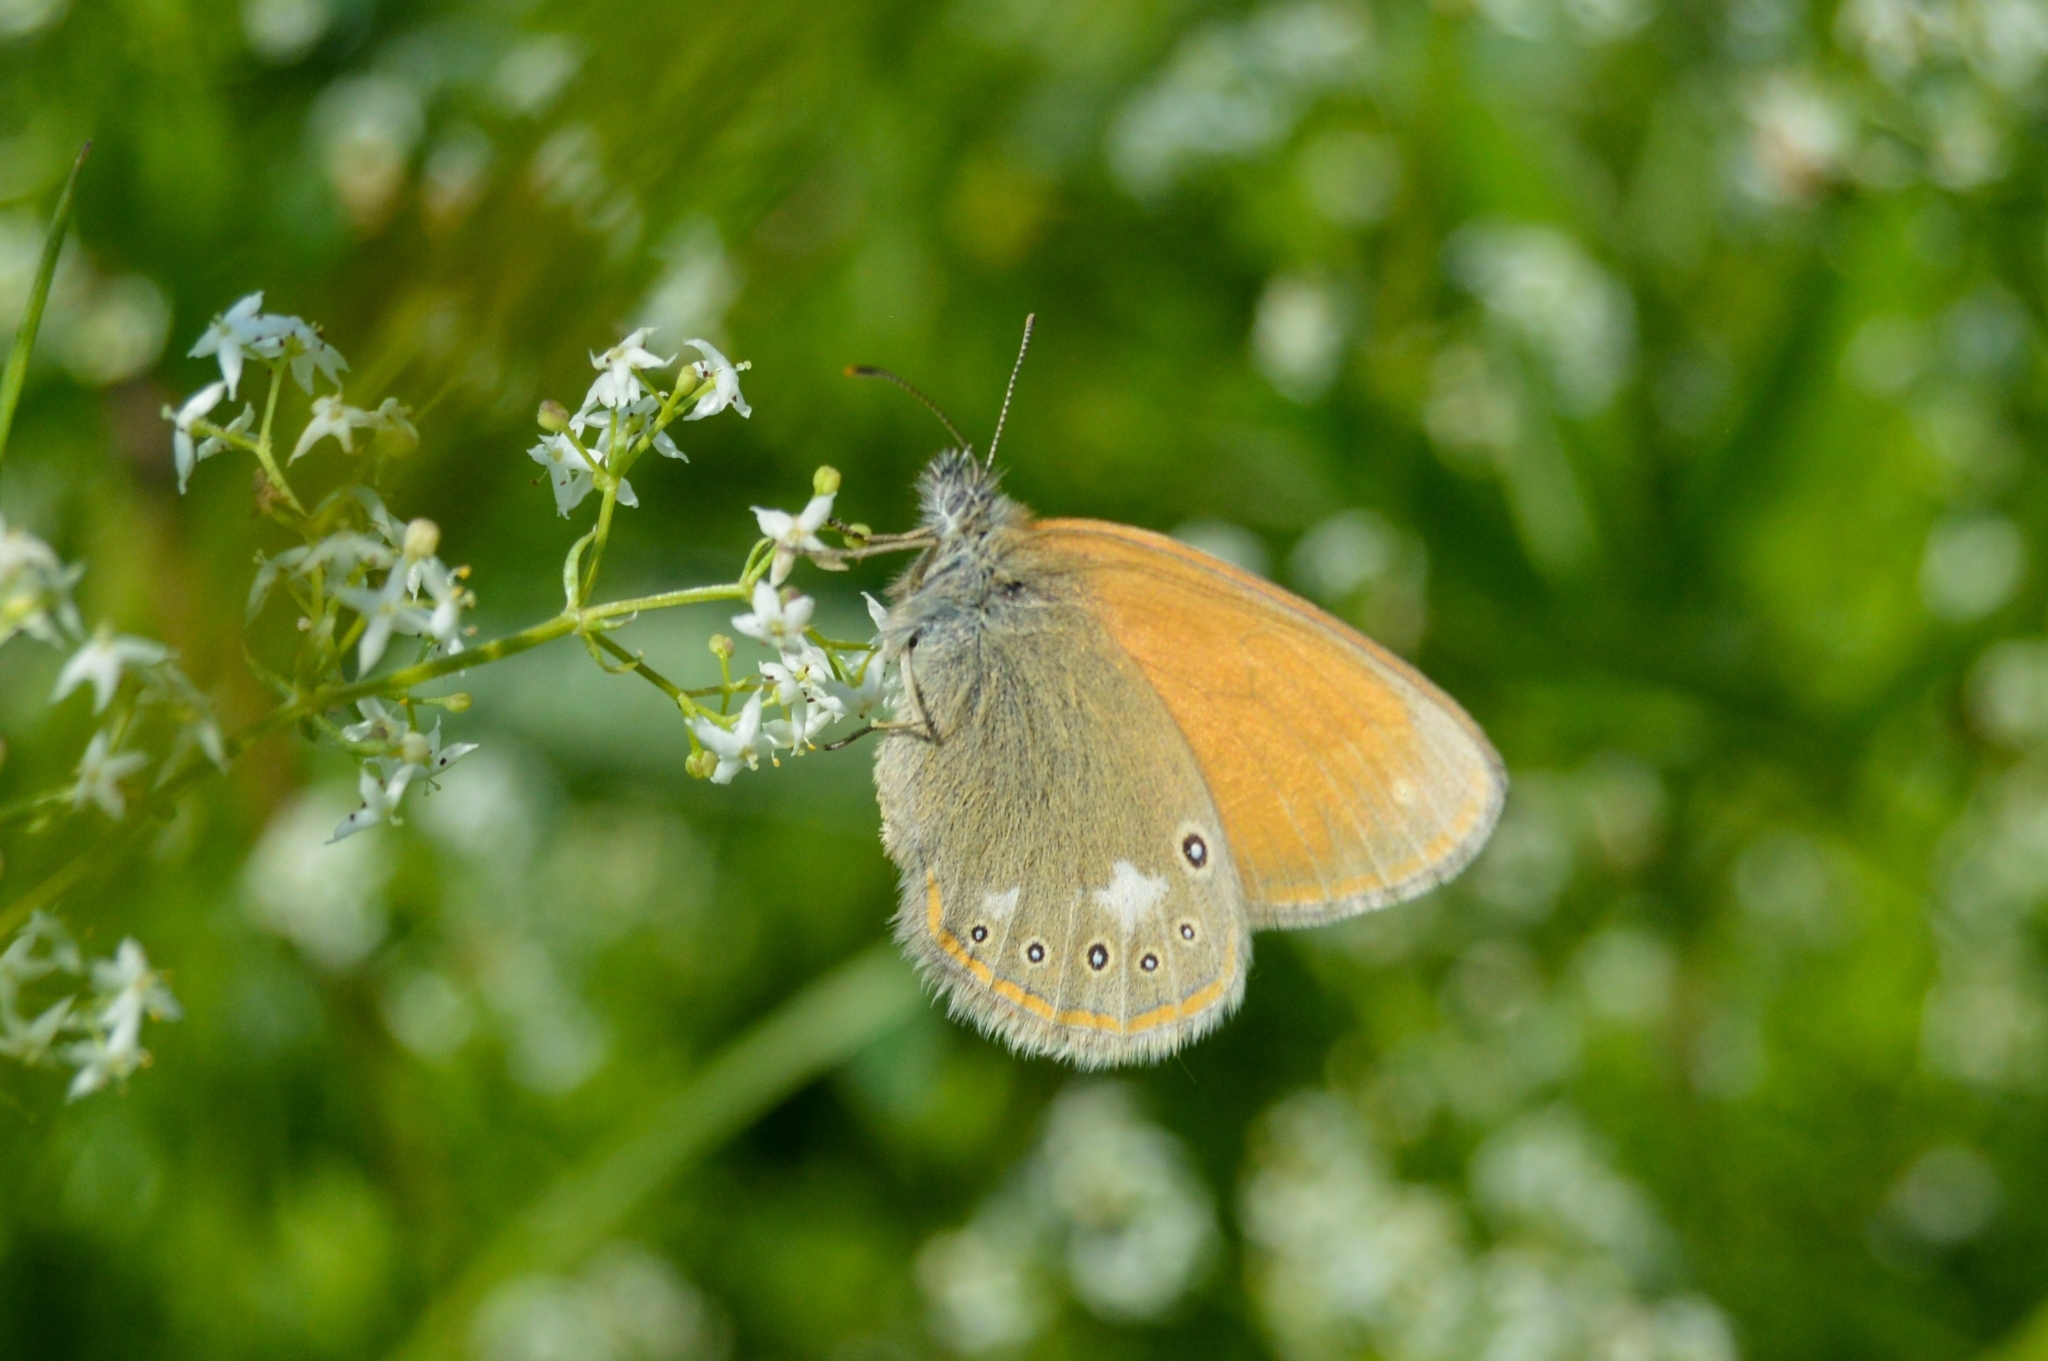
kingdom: Animalia
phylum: Arthropoda
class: Insecta
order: Lepidoptera
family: Nymphalidae
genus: Coenonympha
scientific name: Coenonympha iphis
